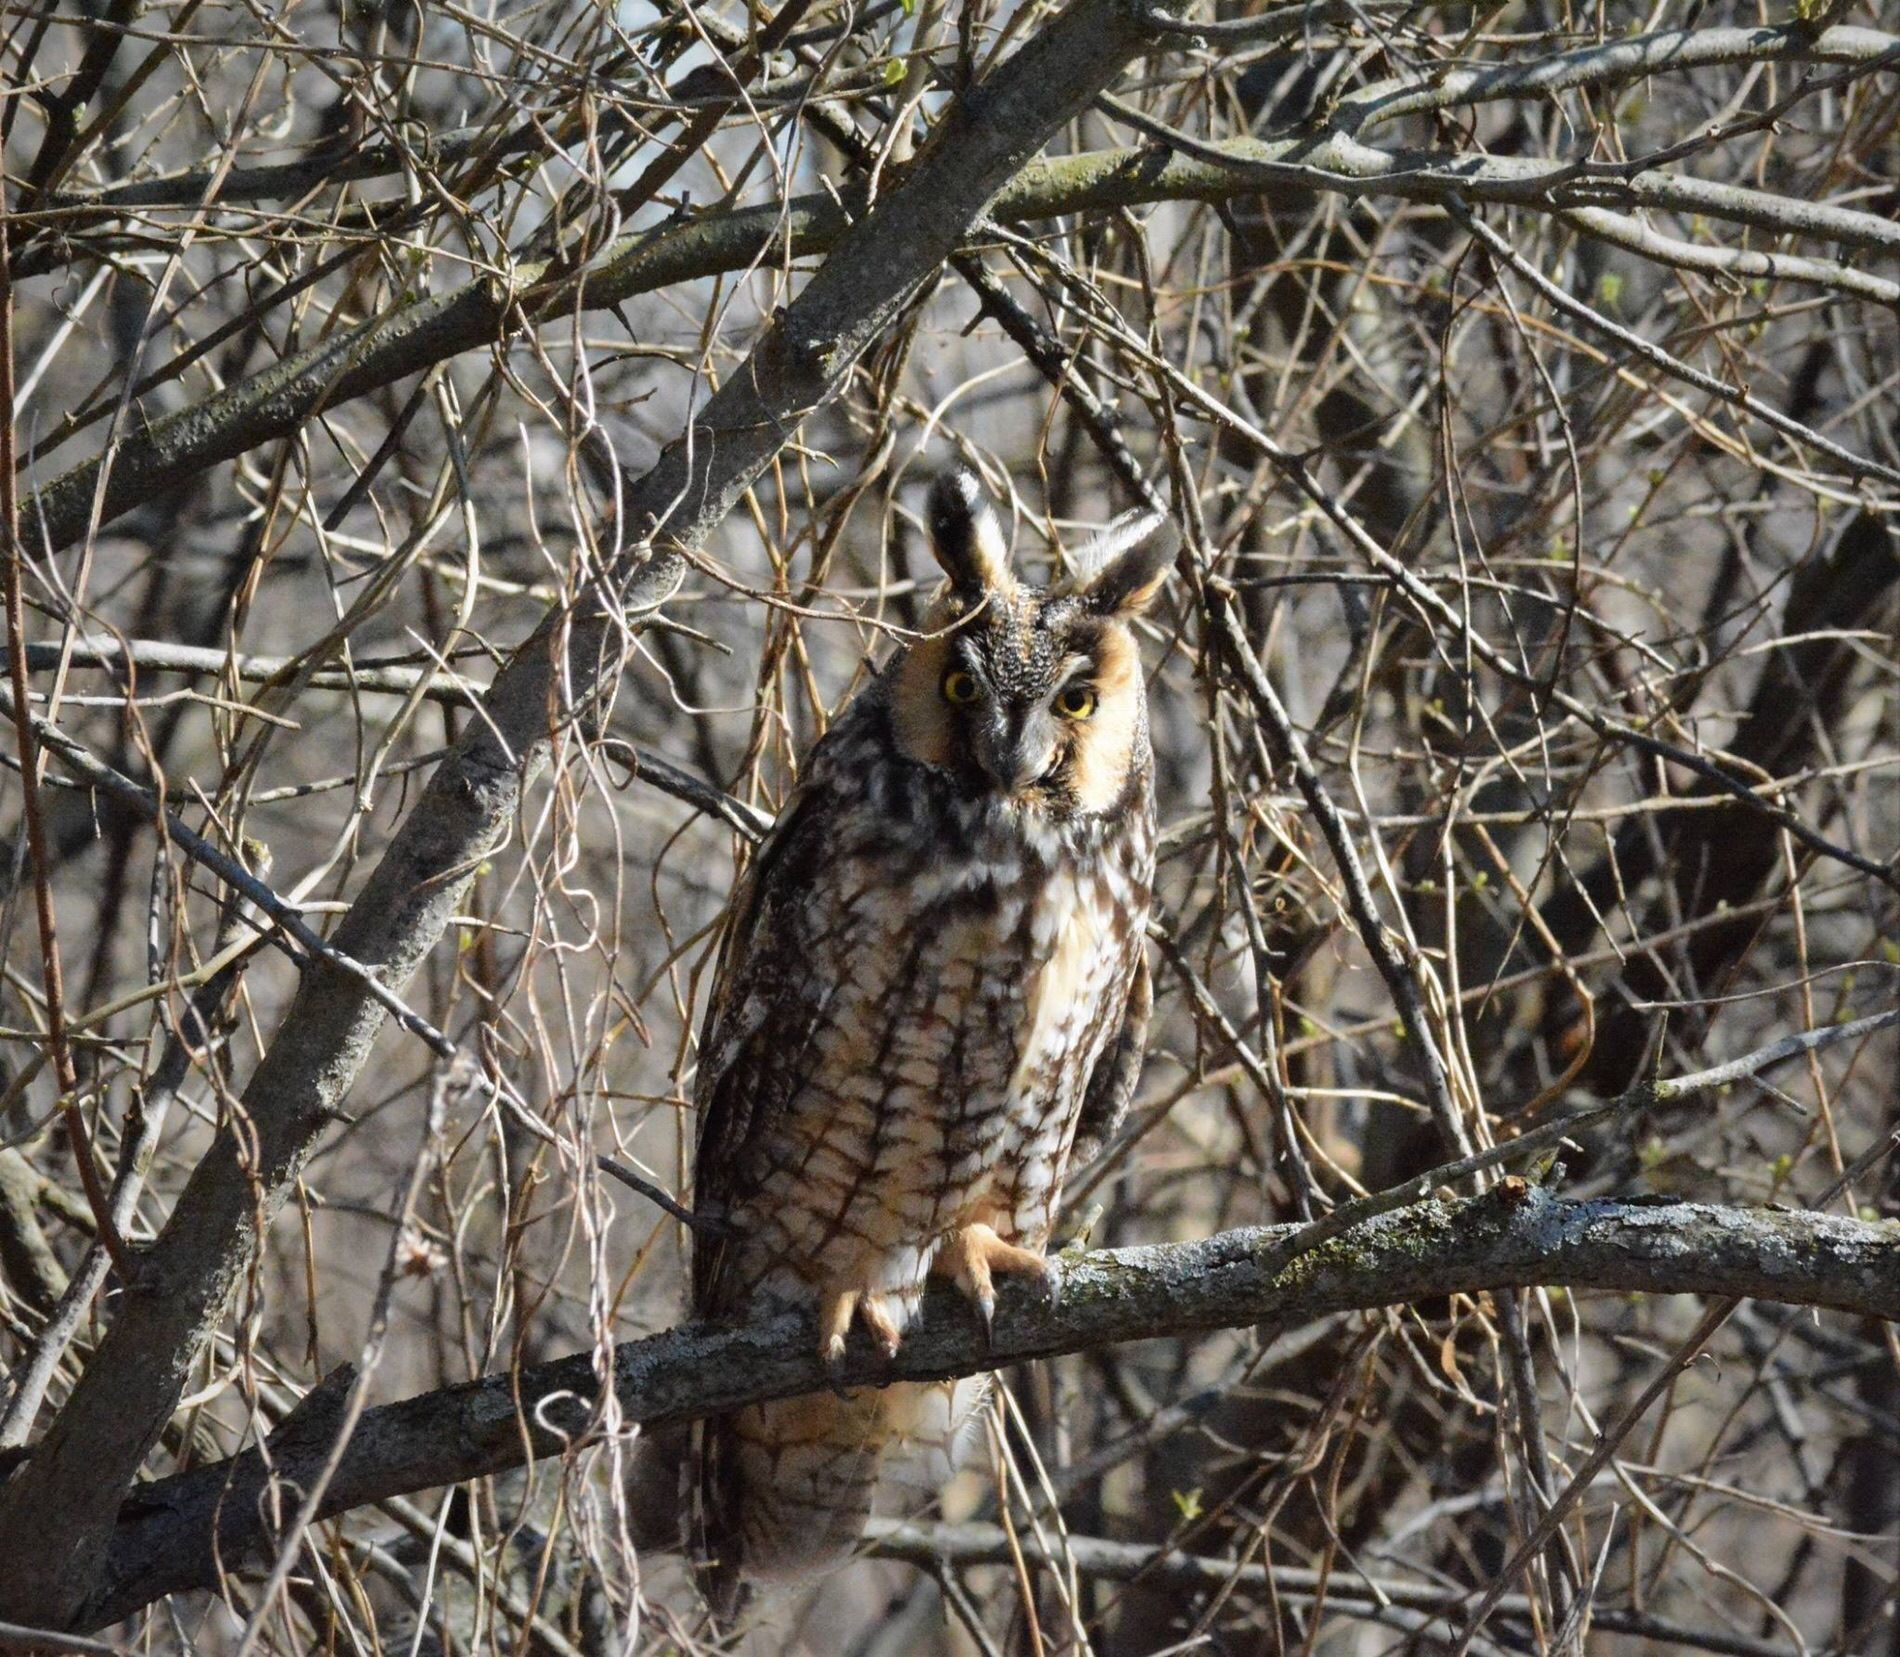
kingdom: Animalia
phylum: Chordata
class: Aves
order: Strigiformes
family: Strigidae
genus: Asio
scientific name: Asio otus
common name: Long-eared owl
